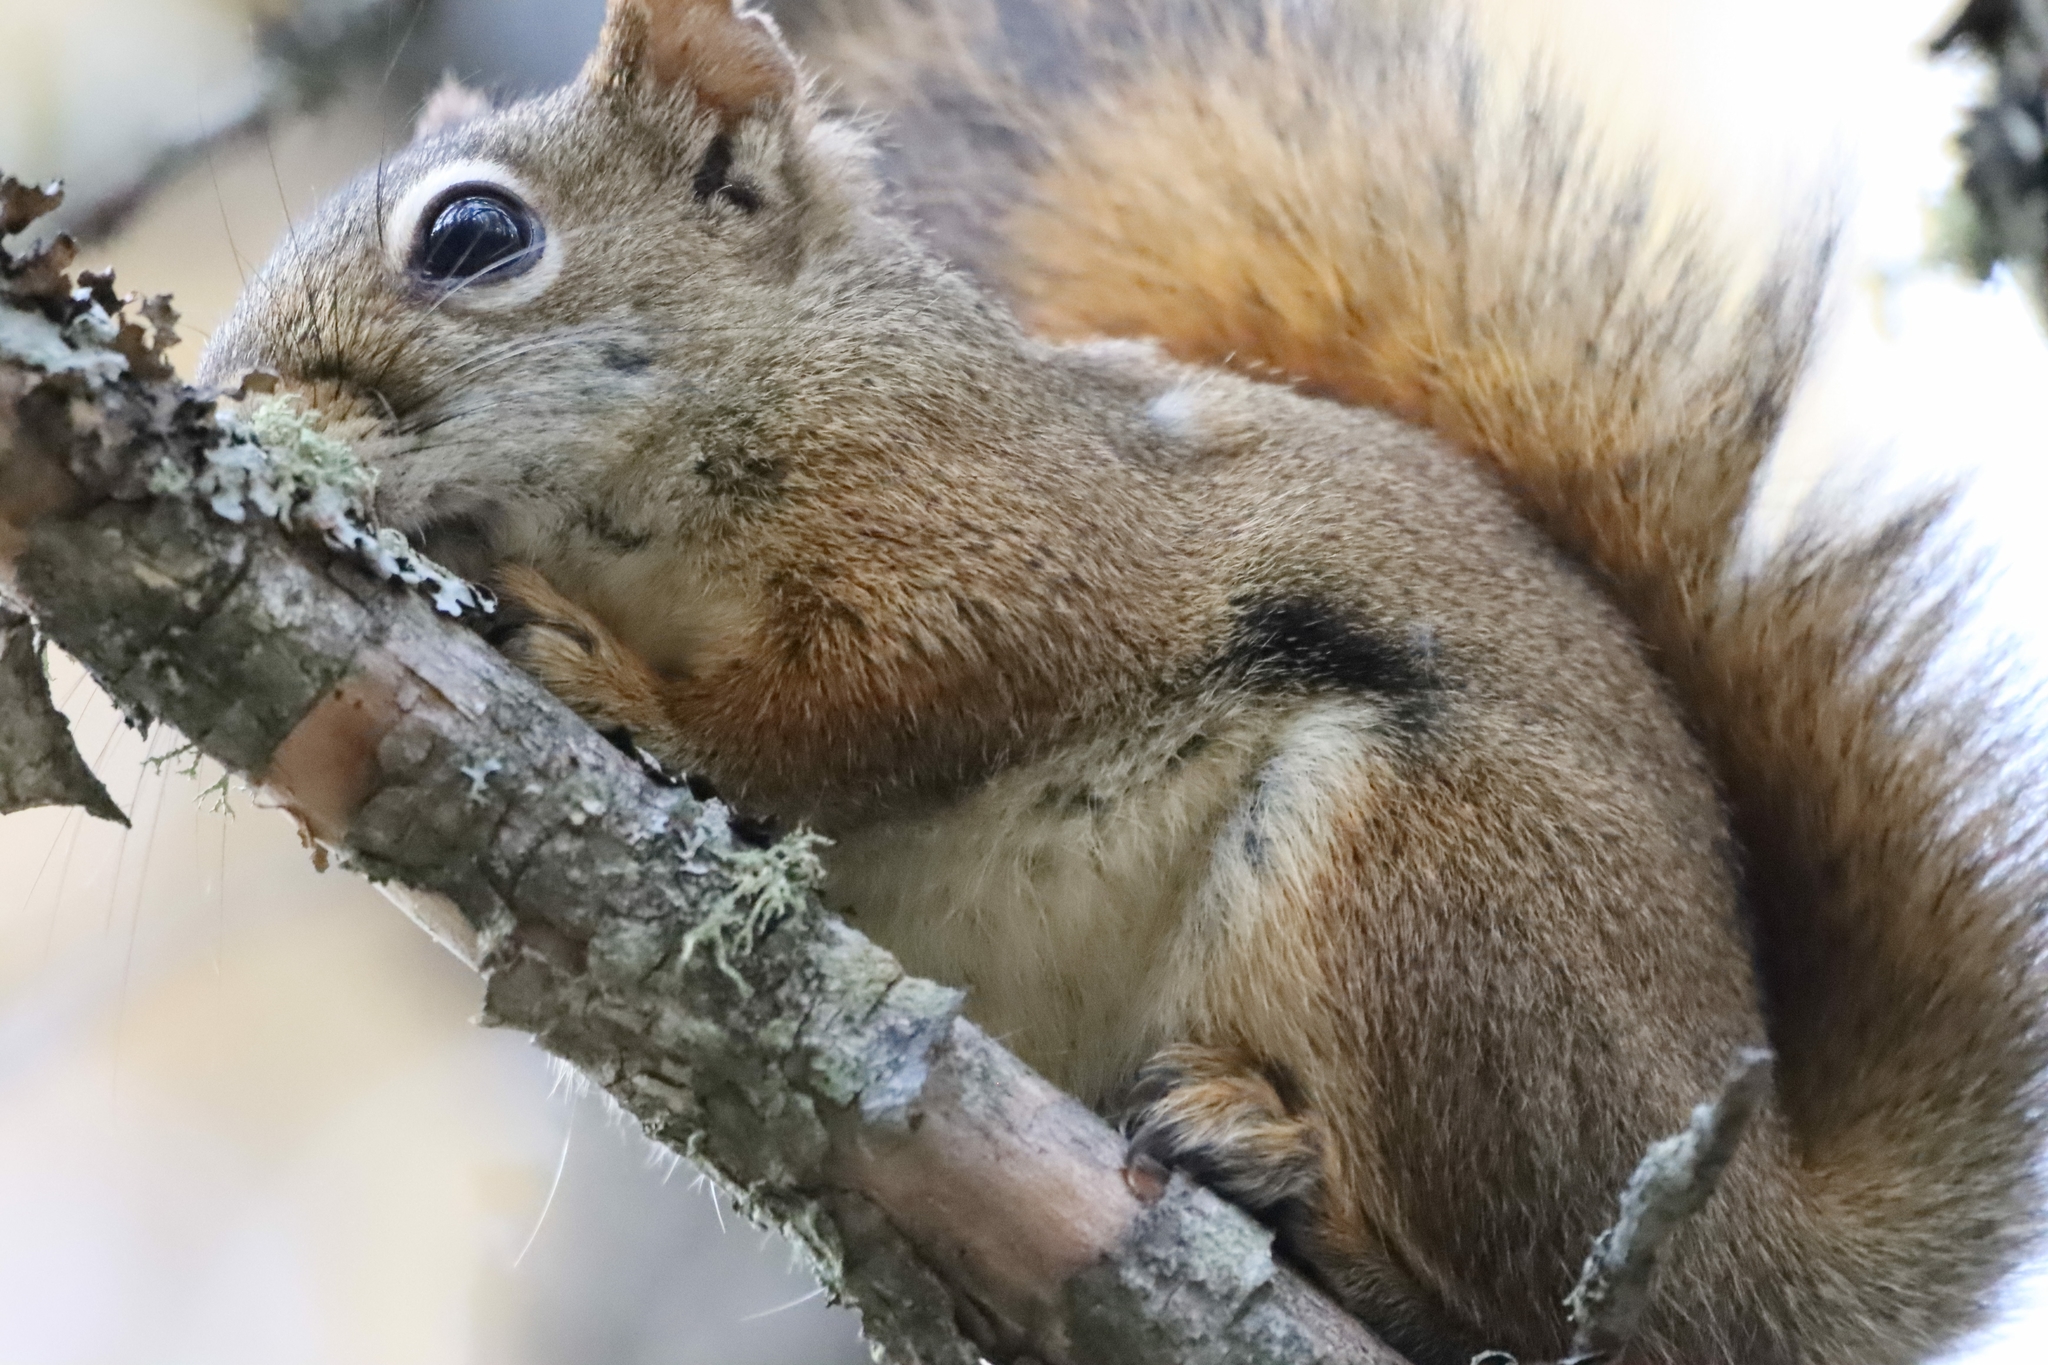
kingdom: Animalia
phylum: Chordata
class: Mammalia
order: Rodentia
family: Sciuridae
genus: Tamiasciurus
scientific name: Tamiasciurus hudsonicus
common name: Red squirrel
